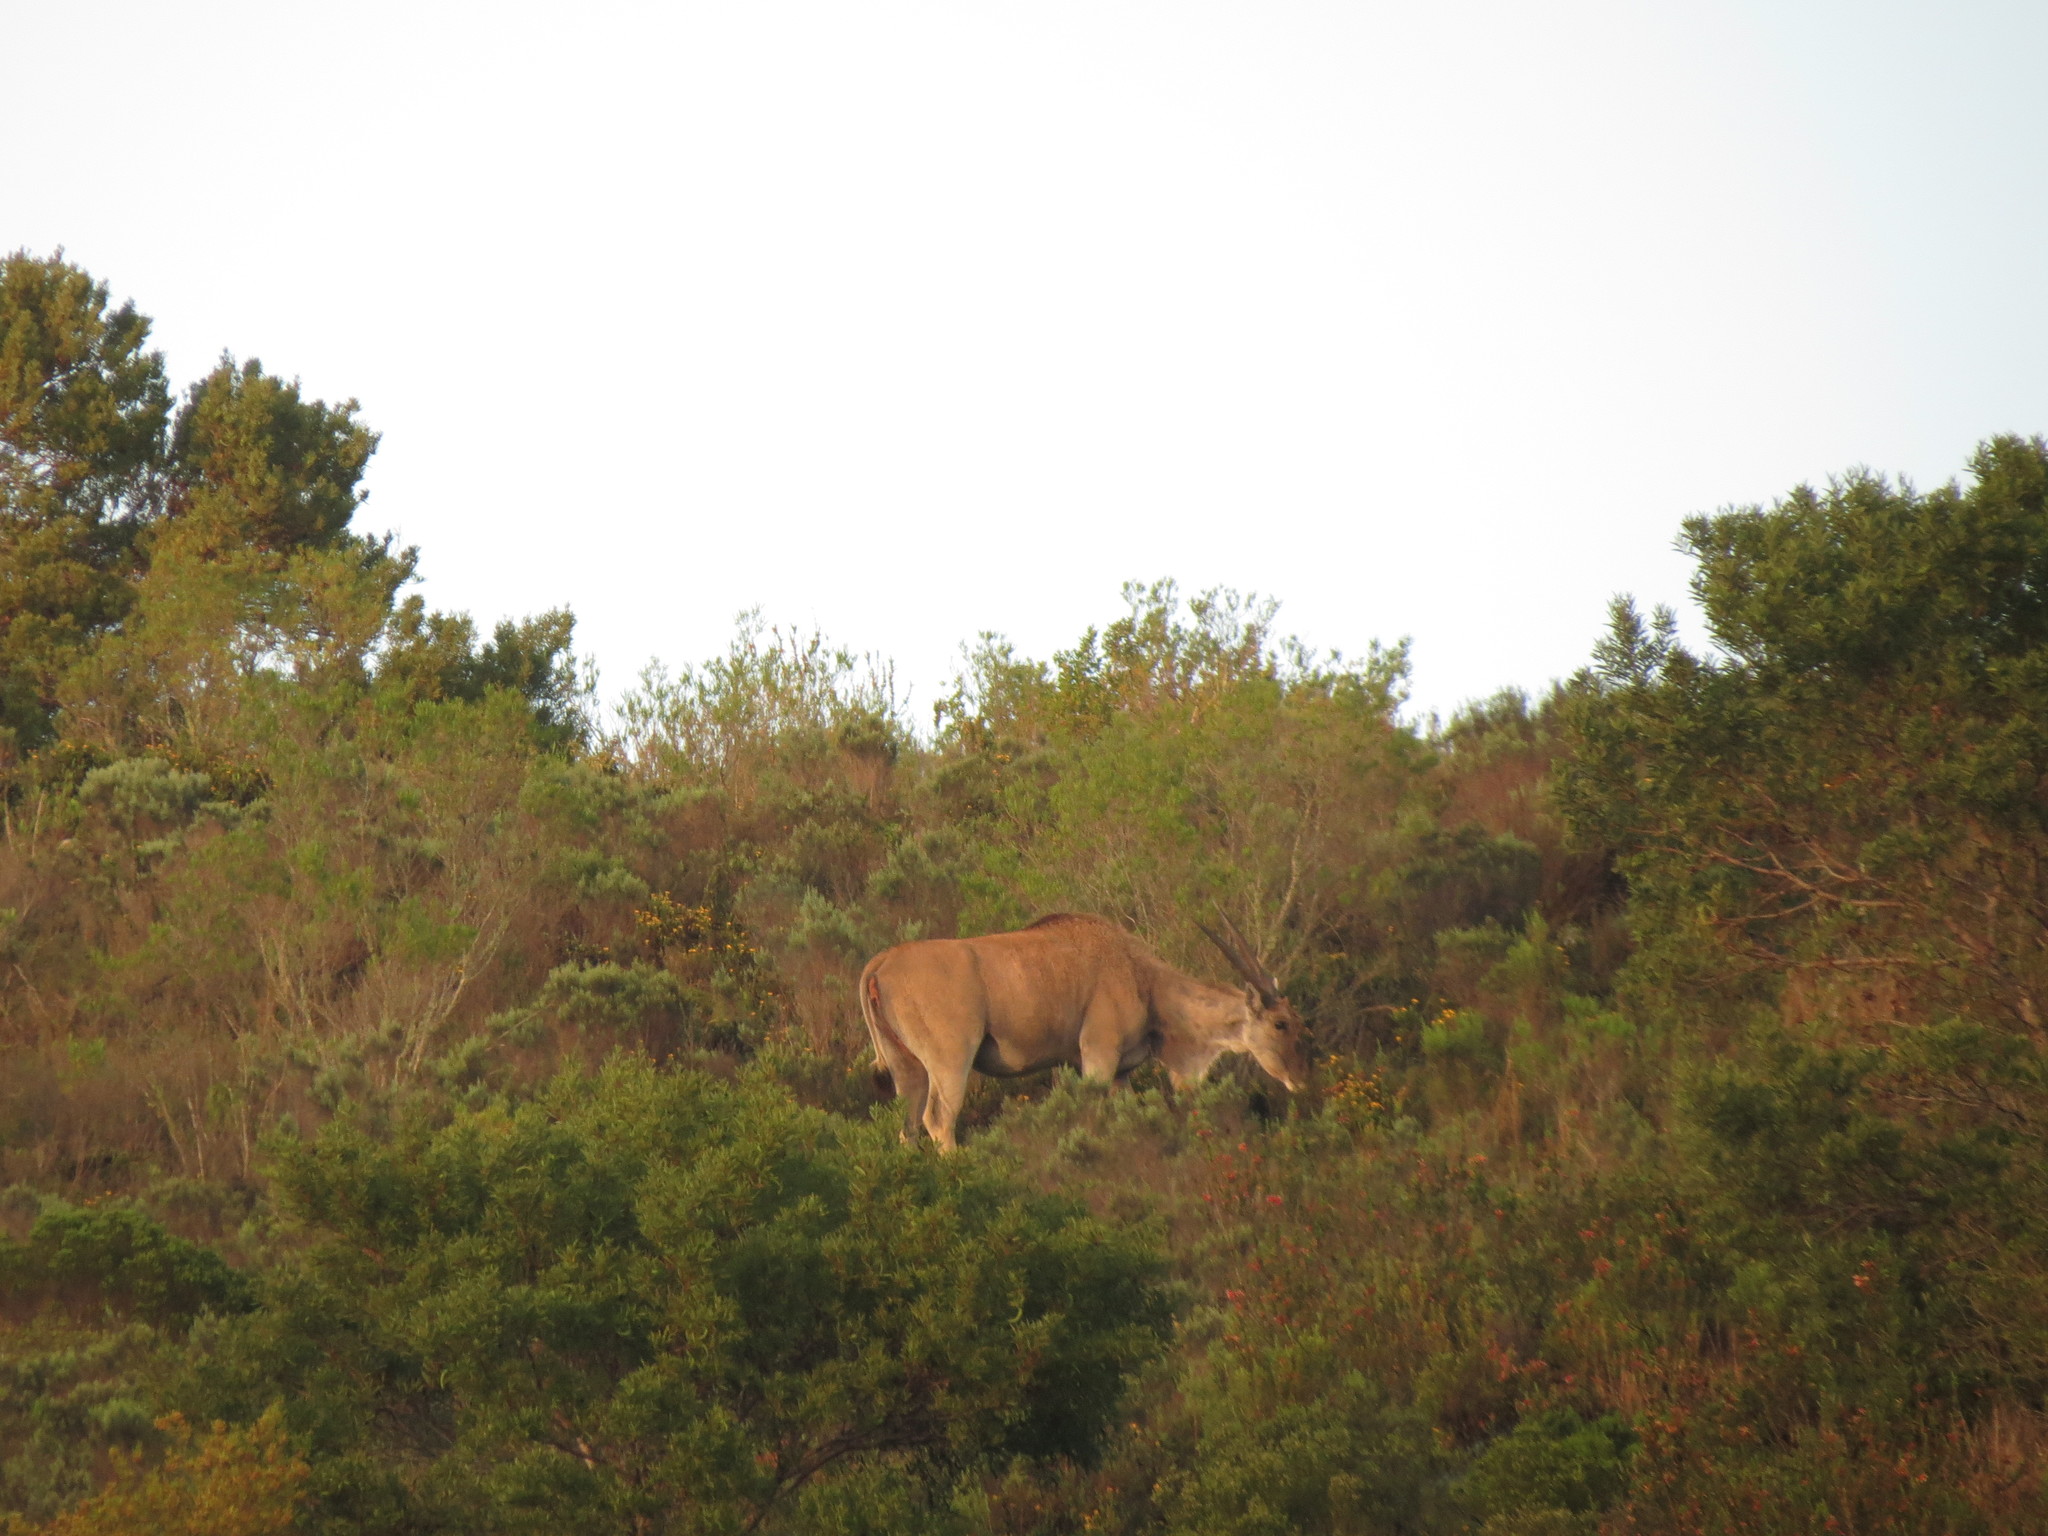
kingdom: Animalia
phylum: Chordata
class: Mammalia
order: Artiodactyla
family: Bovidae
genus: Taurotragus
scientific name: Taurotragus oryx
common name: Common eland
